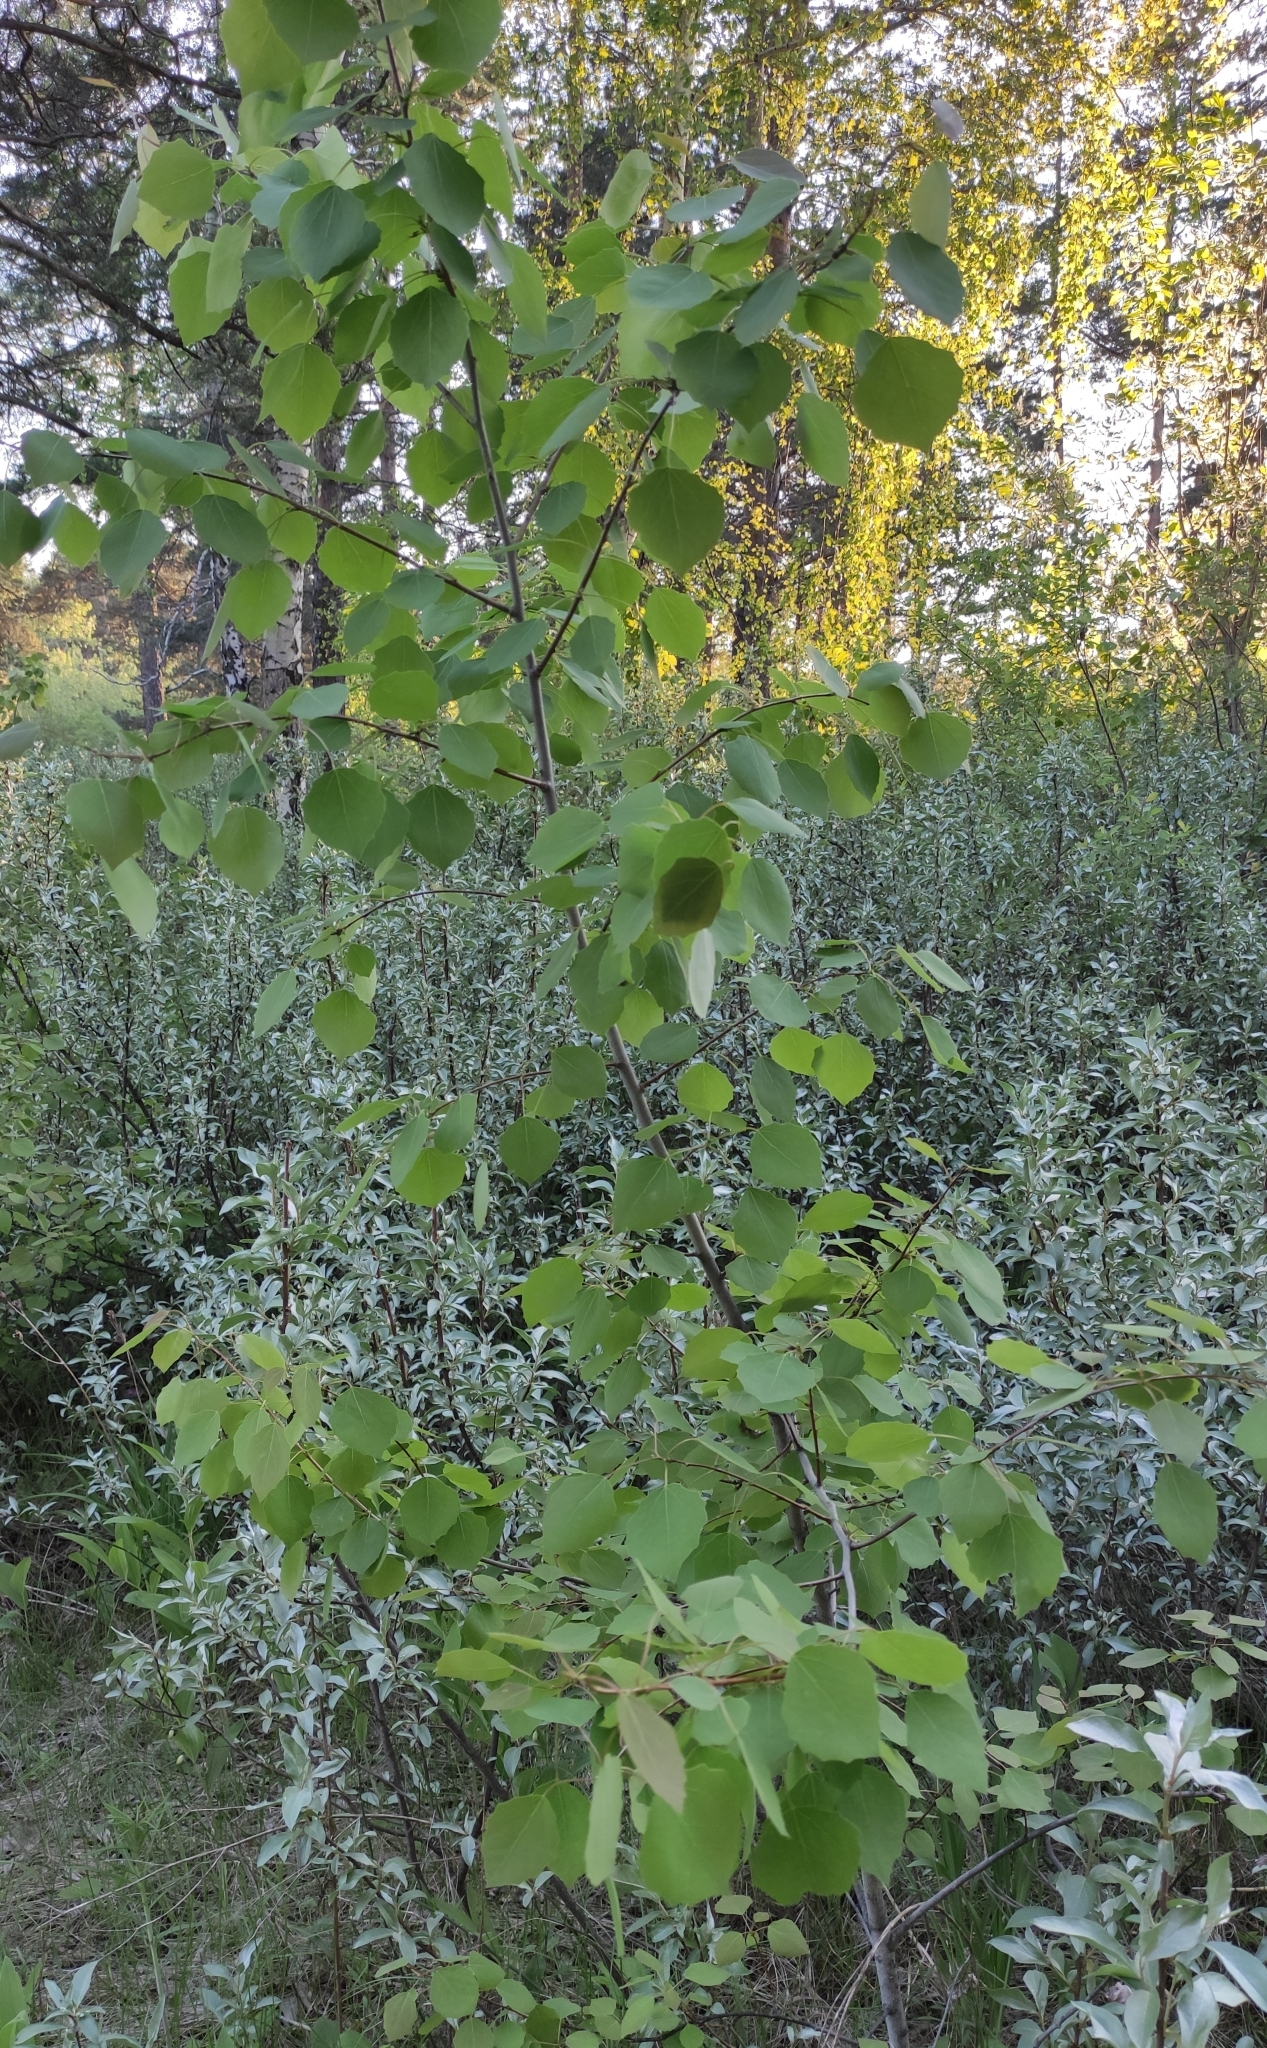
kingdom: Plantae
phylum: Tracheophyta
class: Magnoliopsida
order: Malpighiales
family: Salicaceae
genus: Populus
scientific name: Populus tremula
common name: European aspen
